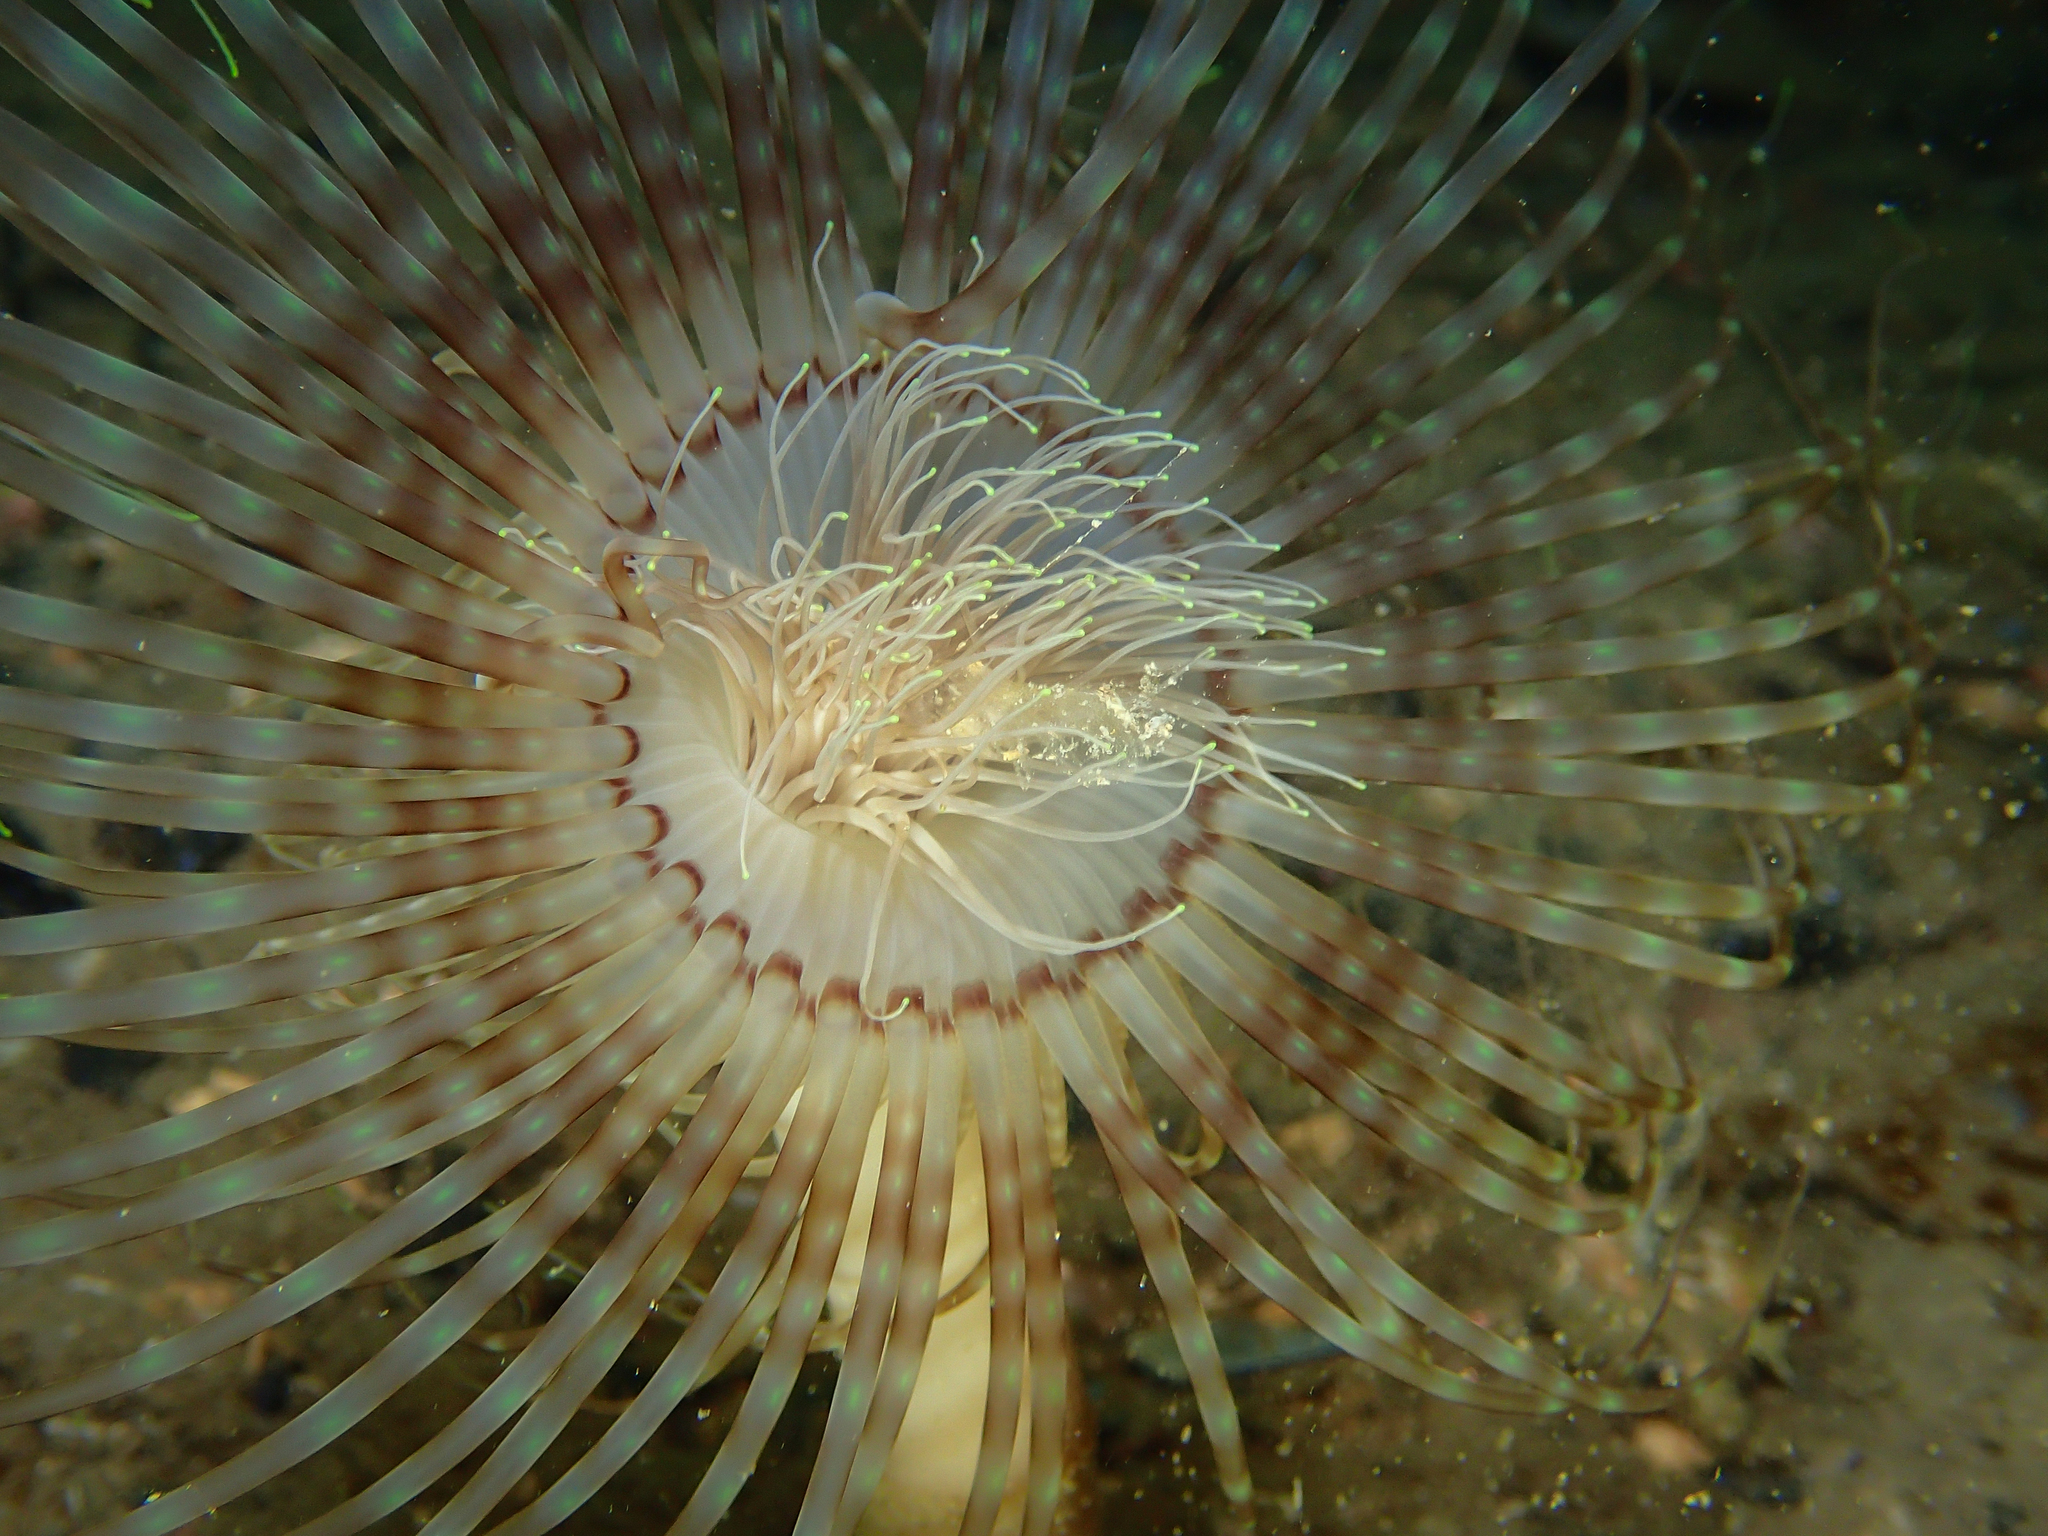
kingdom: Animalia
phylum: Cnidaria
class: Anthozoa
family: Cerianthidae
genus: Pachycerianthus
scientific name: Pachycerianthus solitarius
